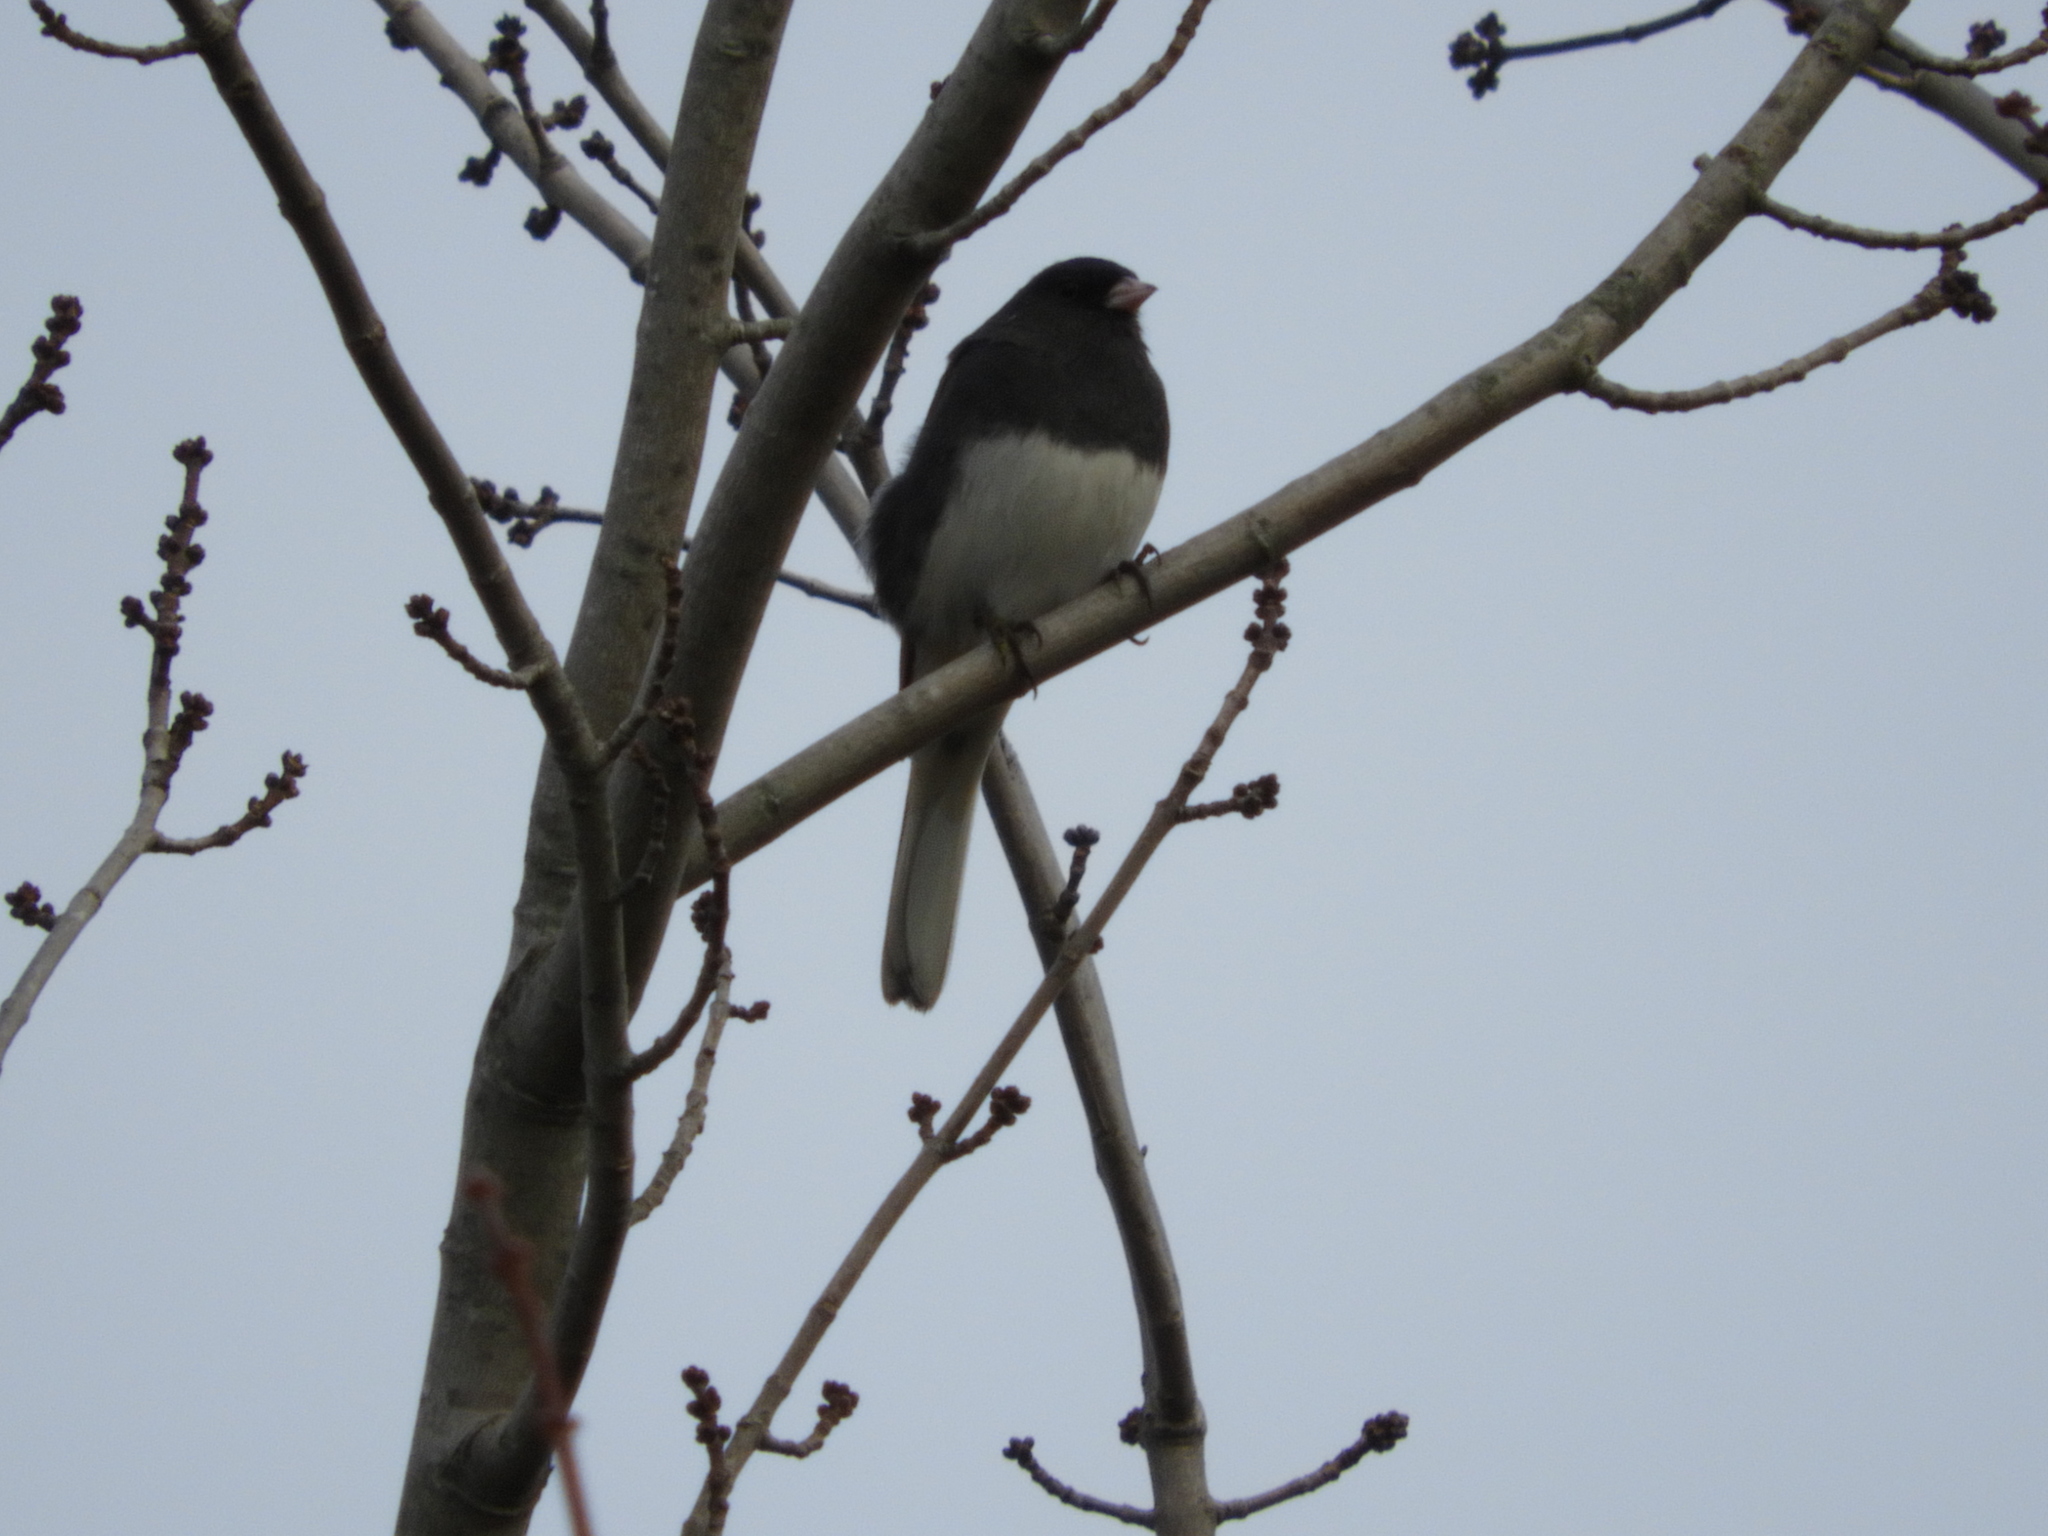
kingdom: Animalia
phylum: Chordata
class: Aves
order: Passeriformes
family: Passerellidae
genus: Junco
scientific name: Junco hyemalis
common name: Dark-eyed junco
